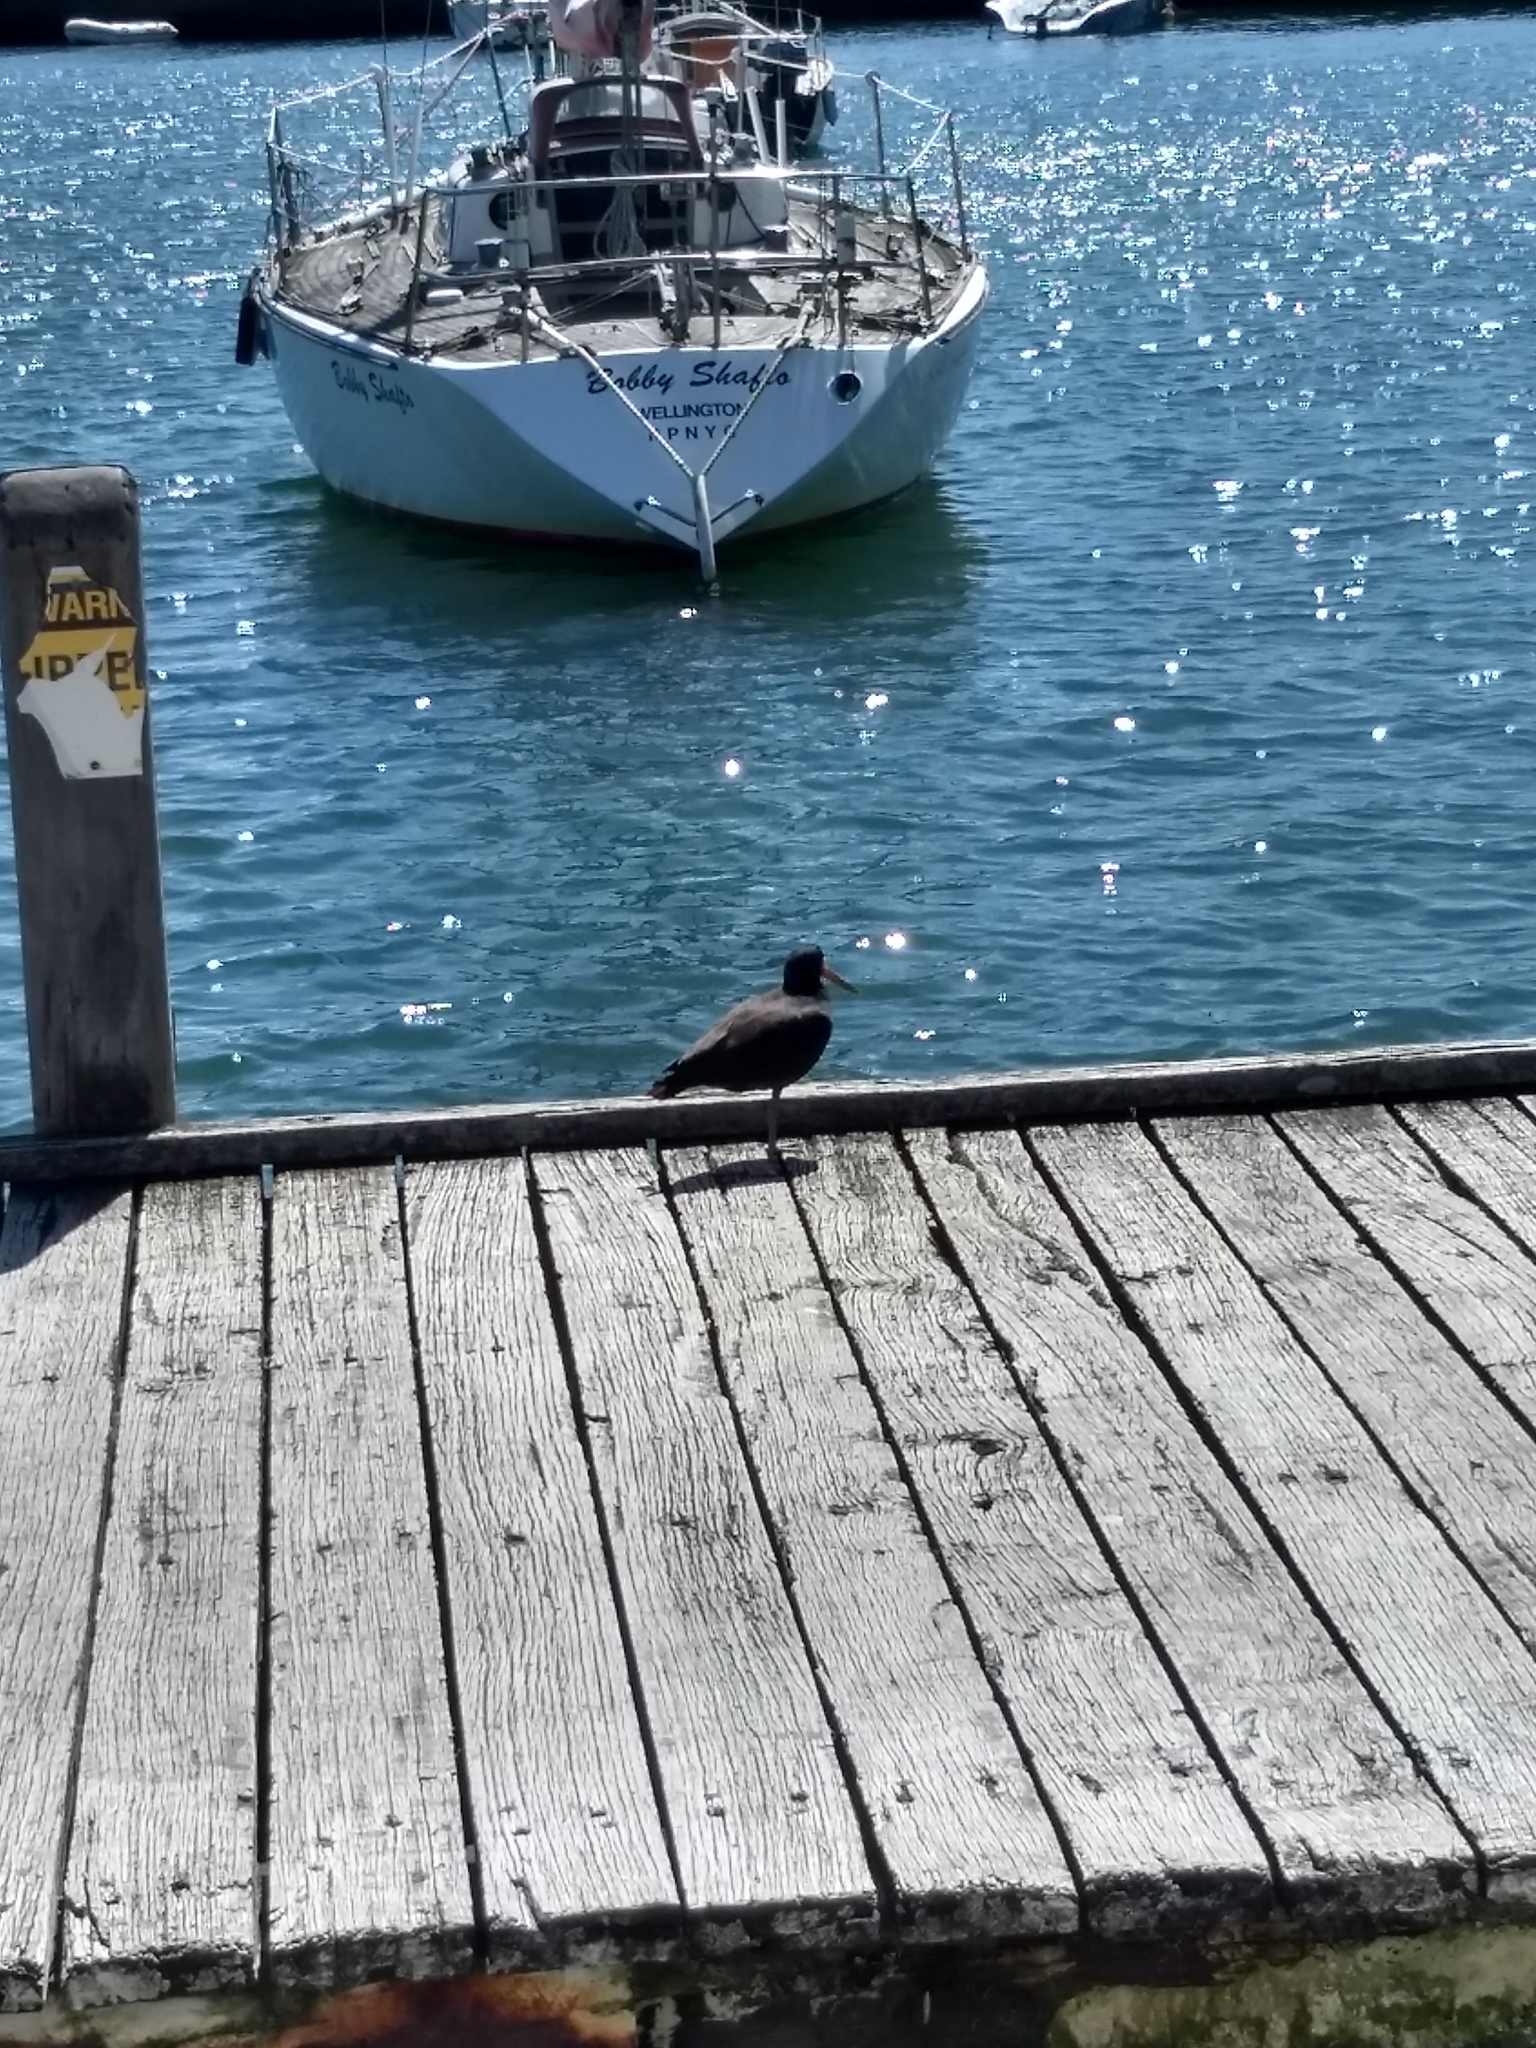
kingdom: Animalia
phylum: Chordata
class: Aves
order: Charadriiformes
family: Haematopodidae
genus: Haematopus
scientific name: Haematopus unicolor
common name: Variable oystercatcher
